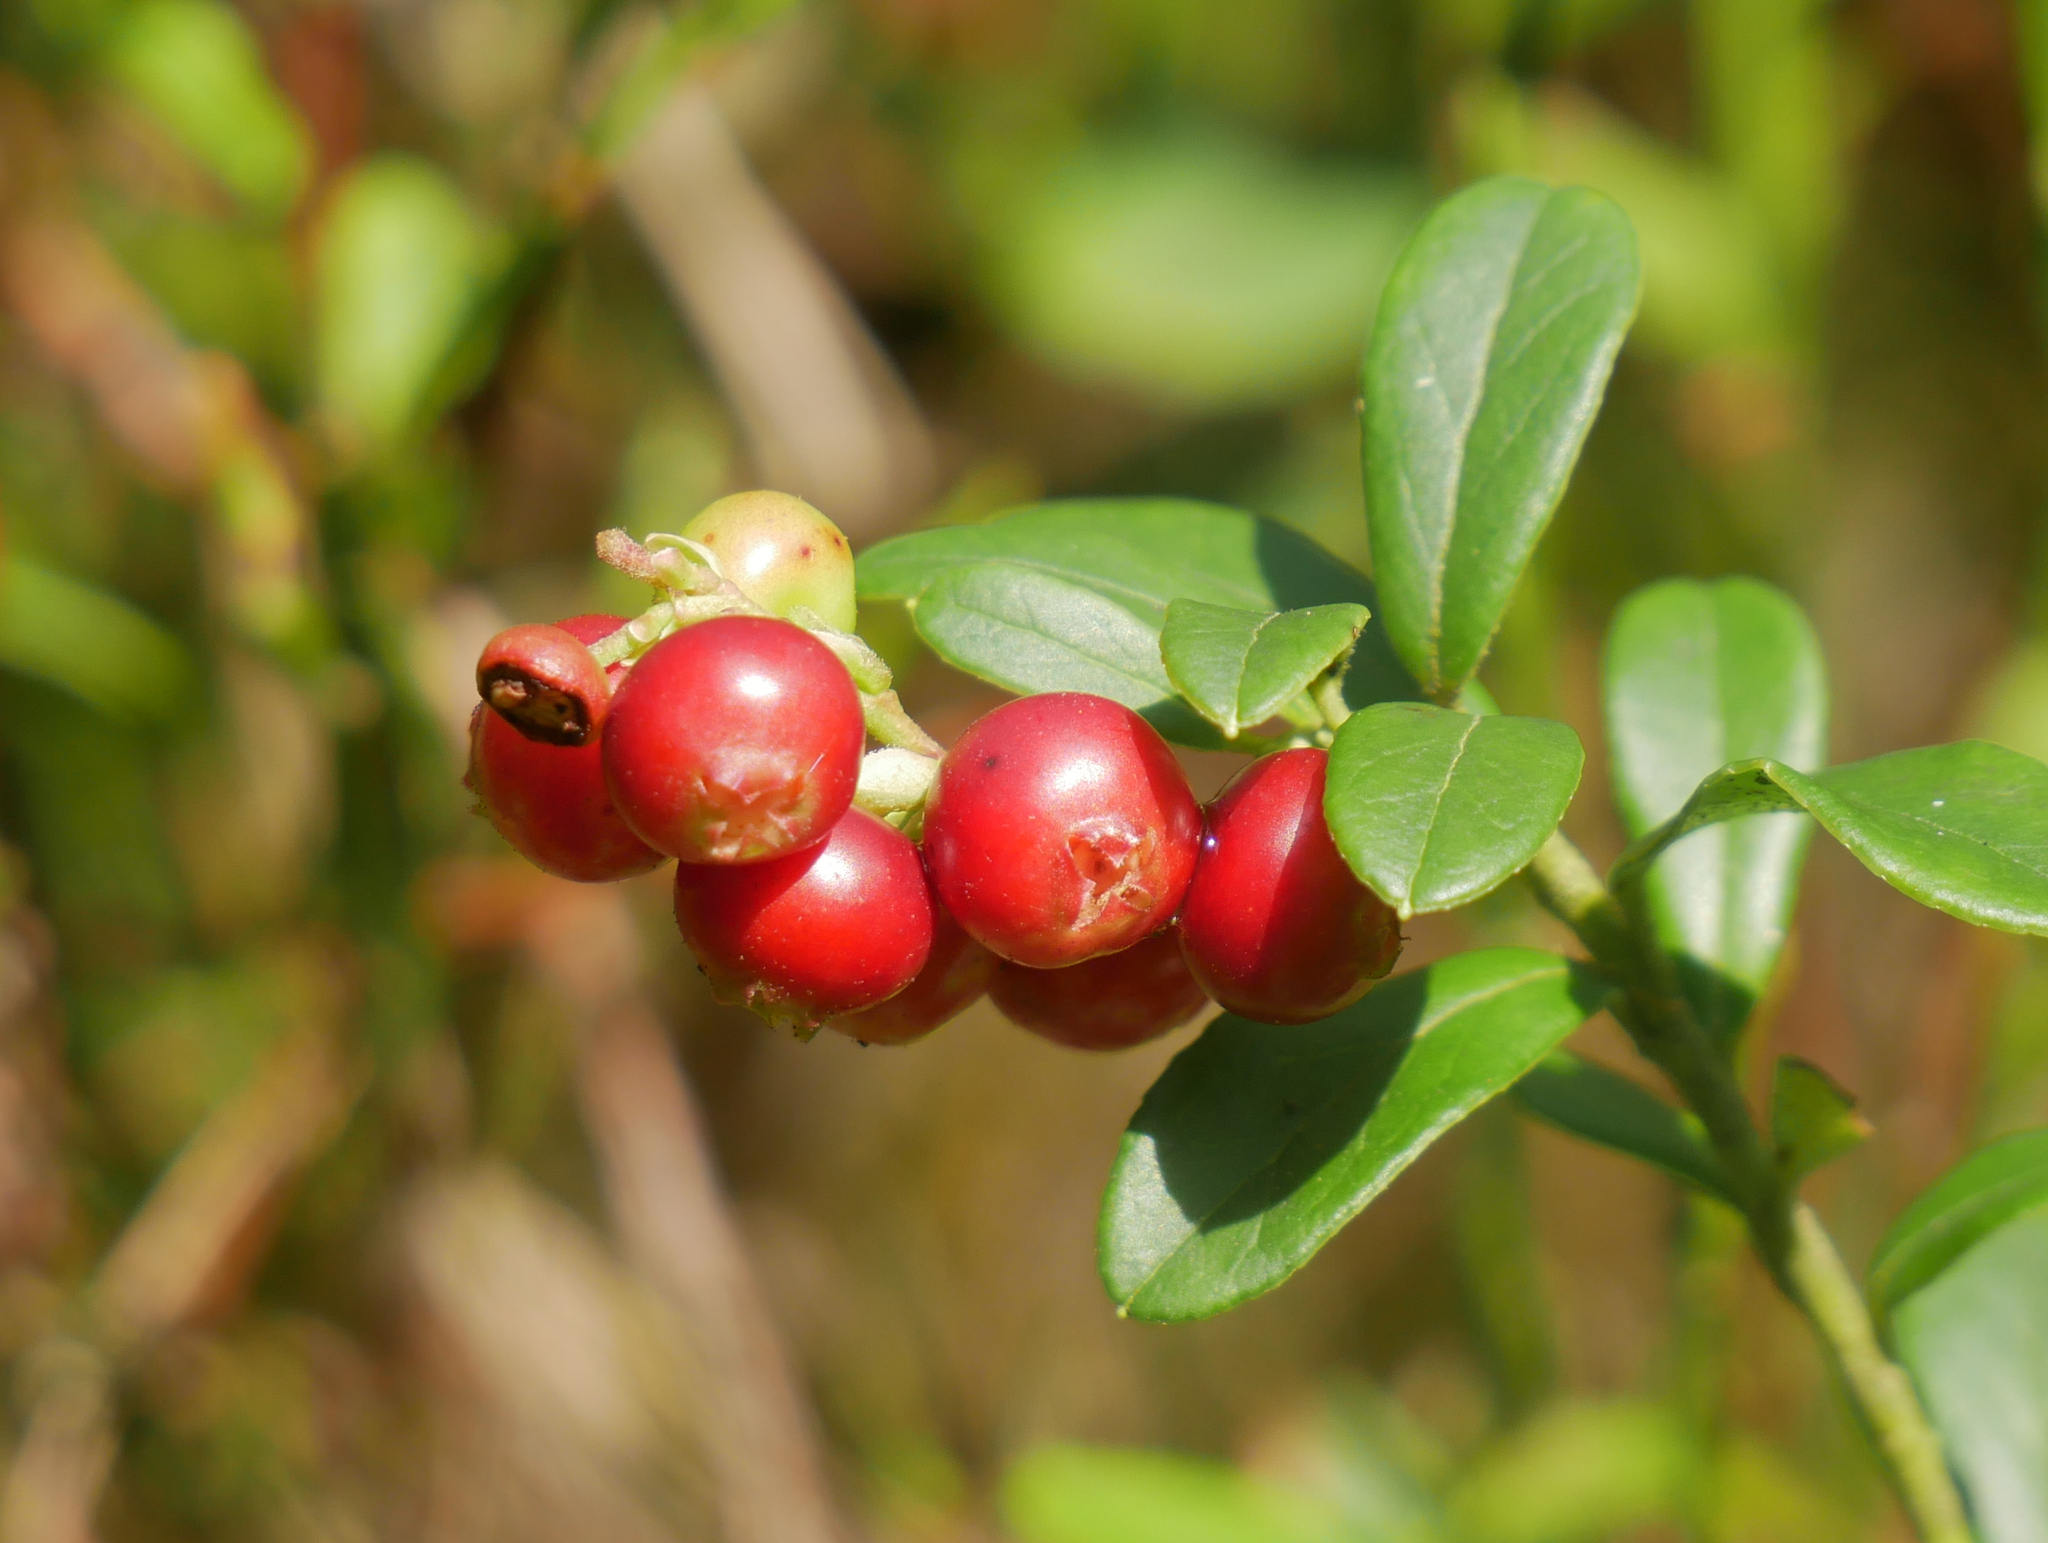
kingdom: Plantae
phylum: Tracheophyta
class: Magnoliopsida
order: Ericales
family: Ericaceae
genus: Vaccinium
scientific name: Vaccinium vitis-idaea
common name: Cowberry
